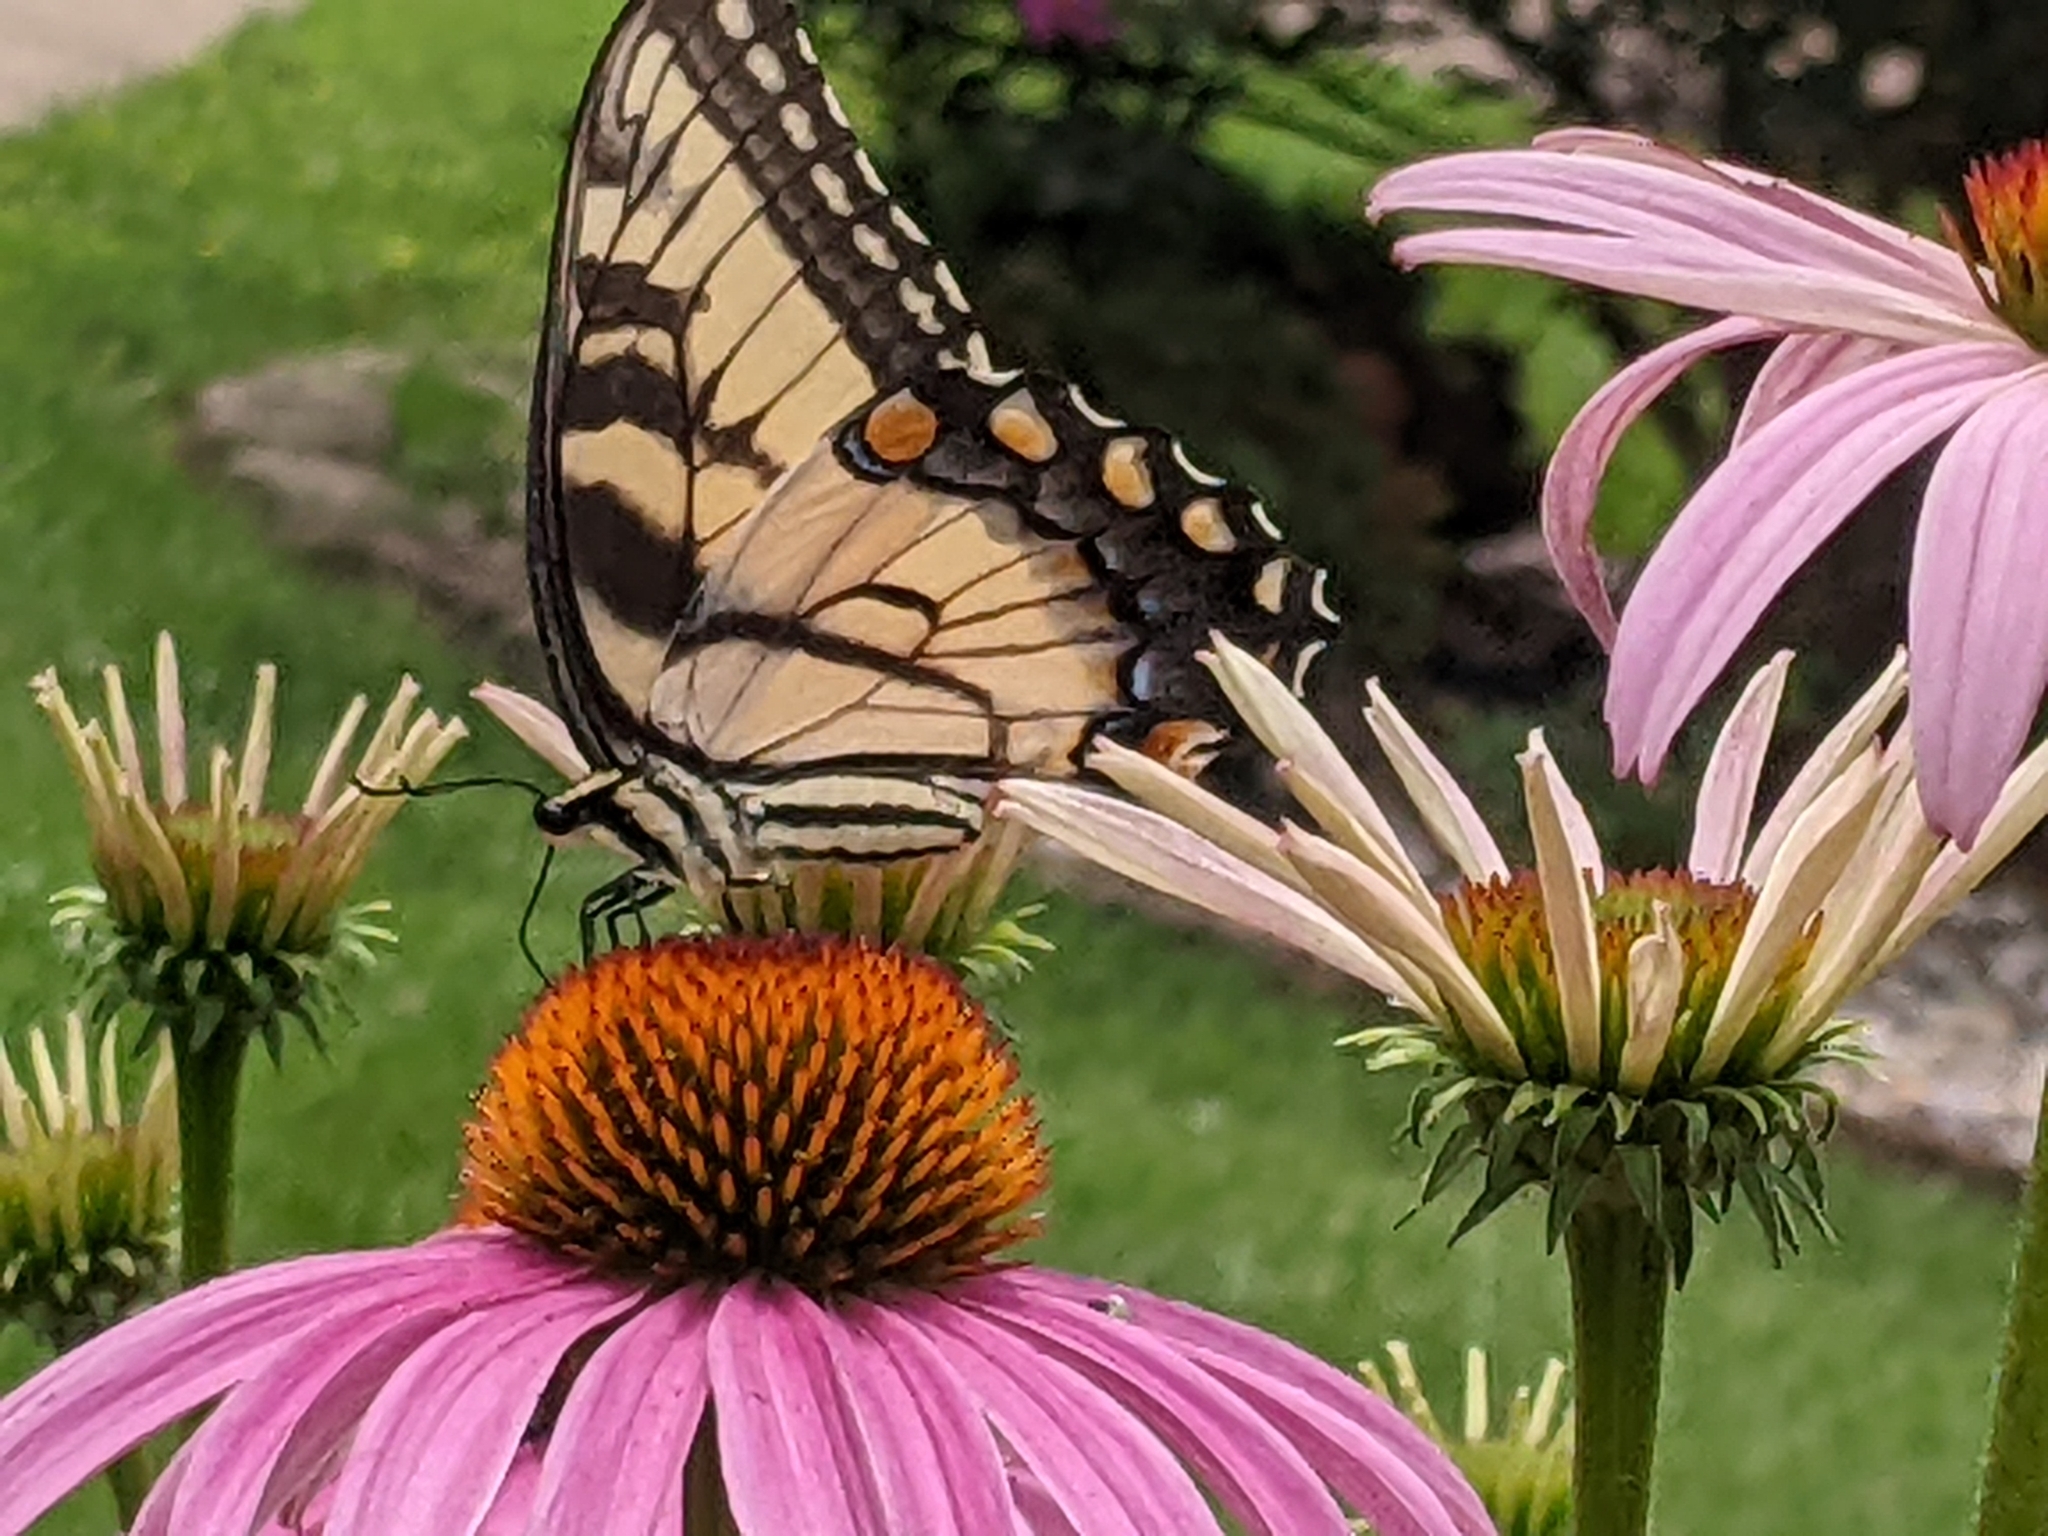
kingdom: Animalia
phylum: Arthropoda
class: Insecta
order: Lepidoptera
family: Papilionidae
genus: Papilio
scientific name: Papilio glaucus
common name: Tiger swallowtail
